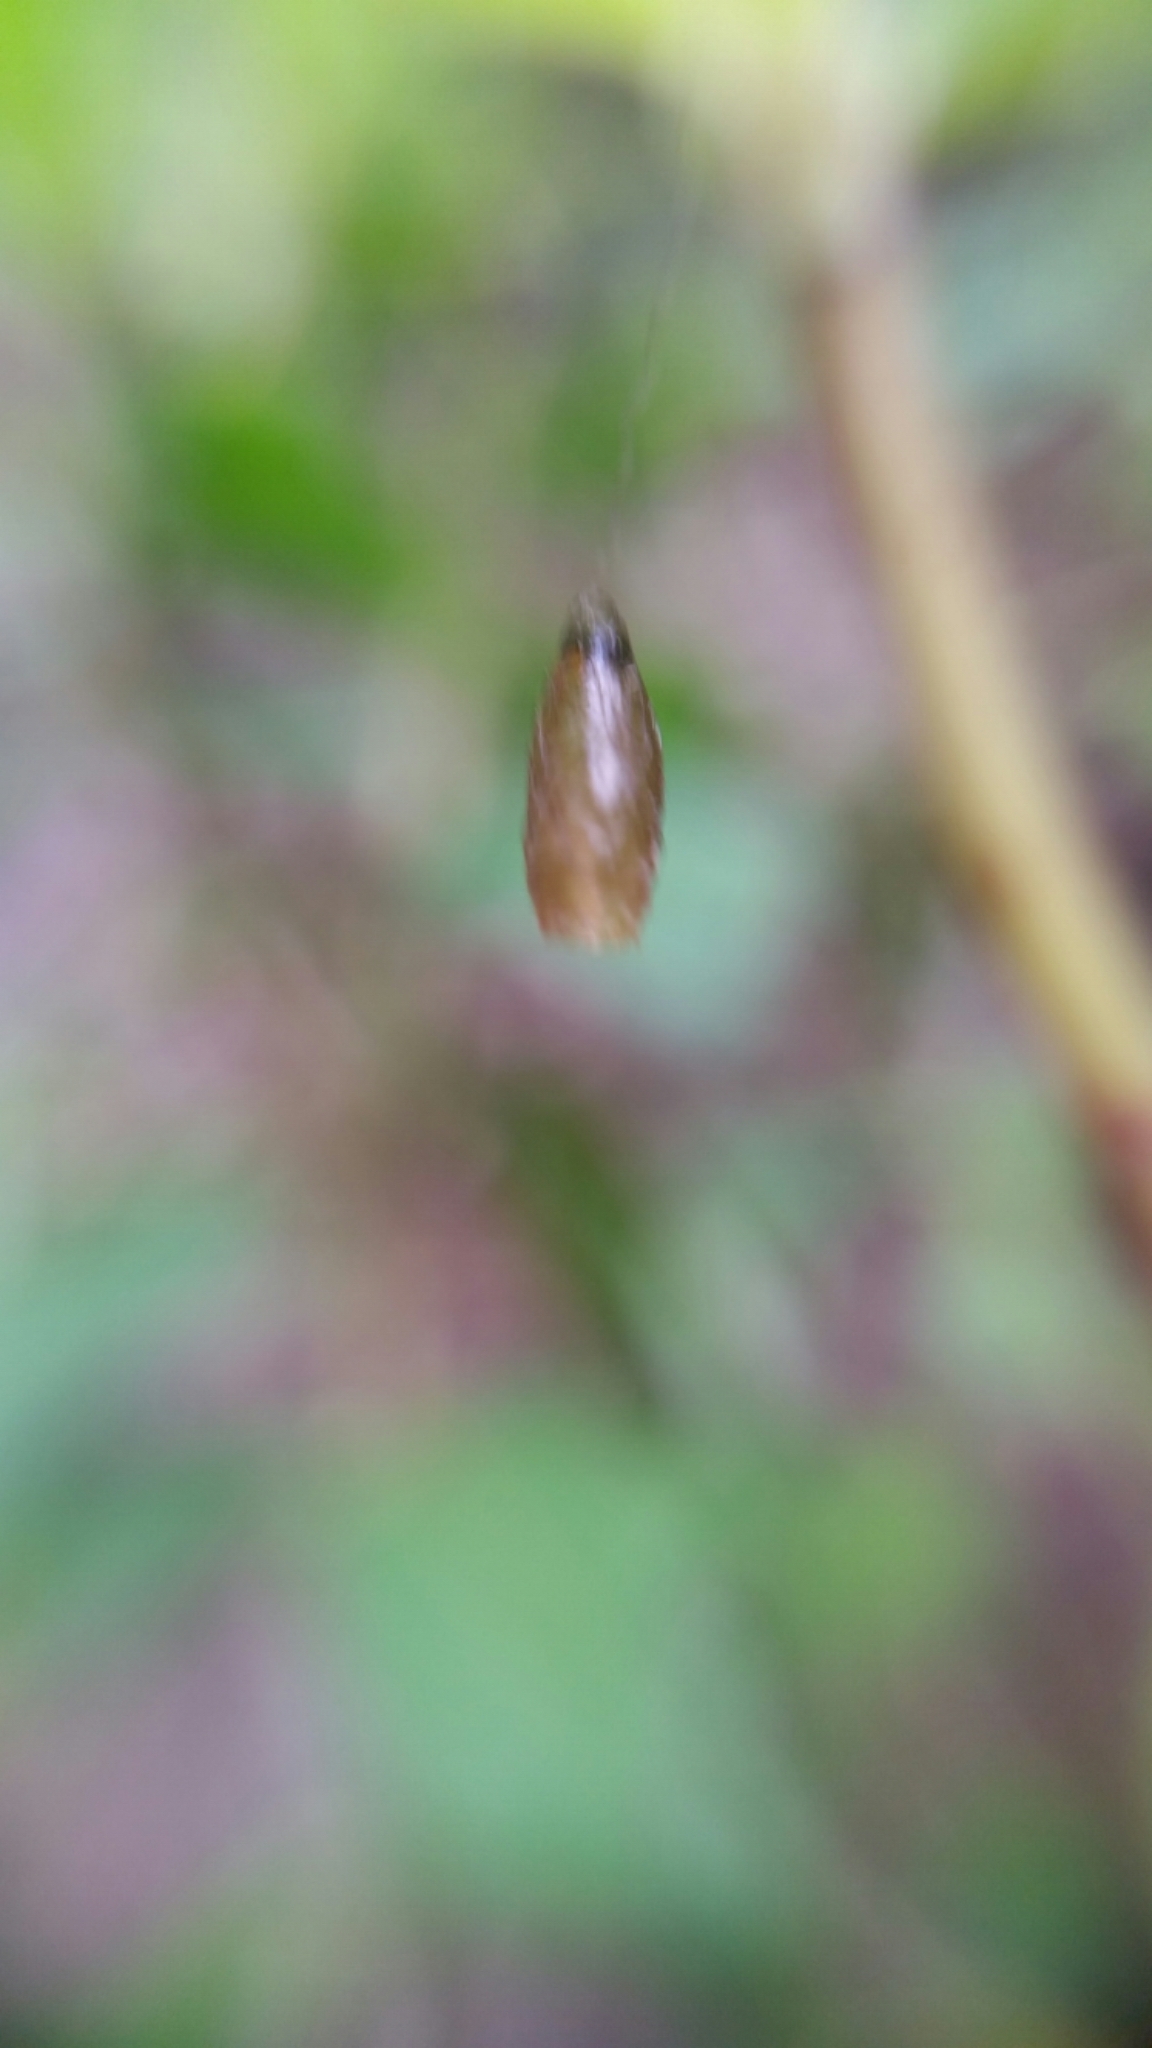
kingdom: Animalia
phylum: Arthropoda
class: Insecta
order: Hymenoptera
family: Braconidae
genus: Meteorus
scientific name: Meteorus pulchricornis
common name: Braconid wasp
